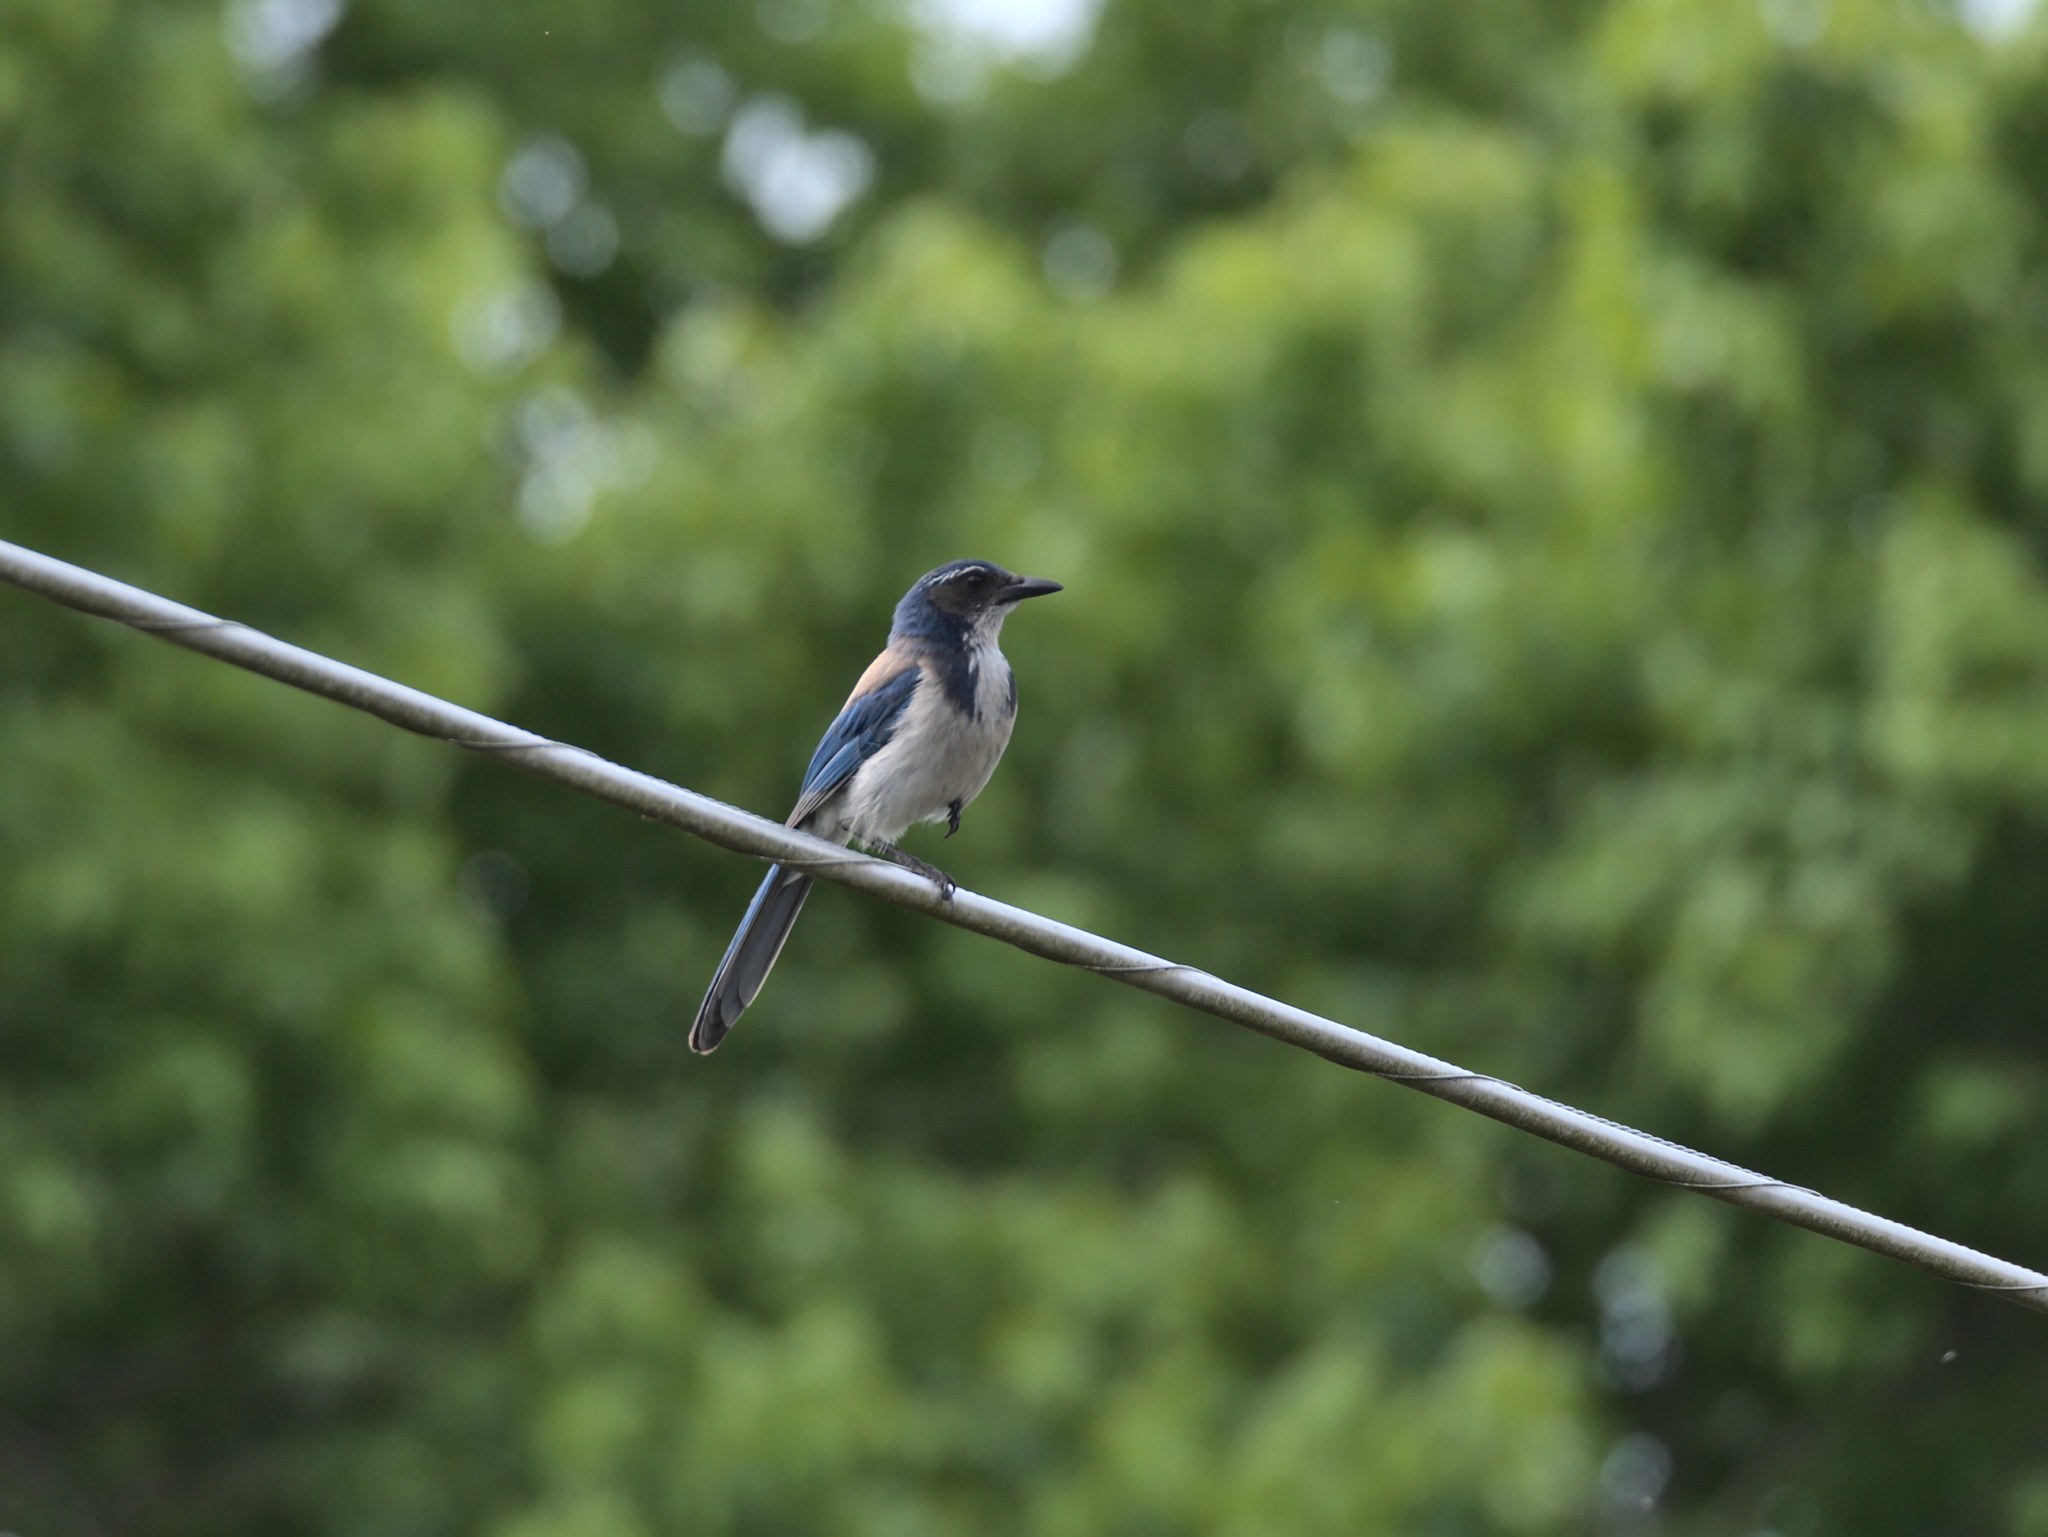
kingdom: Animalia
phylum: Chordata
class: Aves
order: Passeriformes
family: Corvidae
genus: Aphelocoma
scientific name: Aphelocoma californica
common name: California scrub-jay
